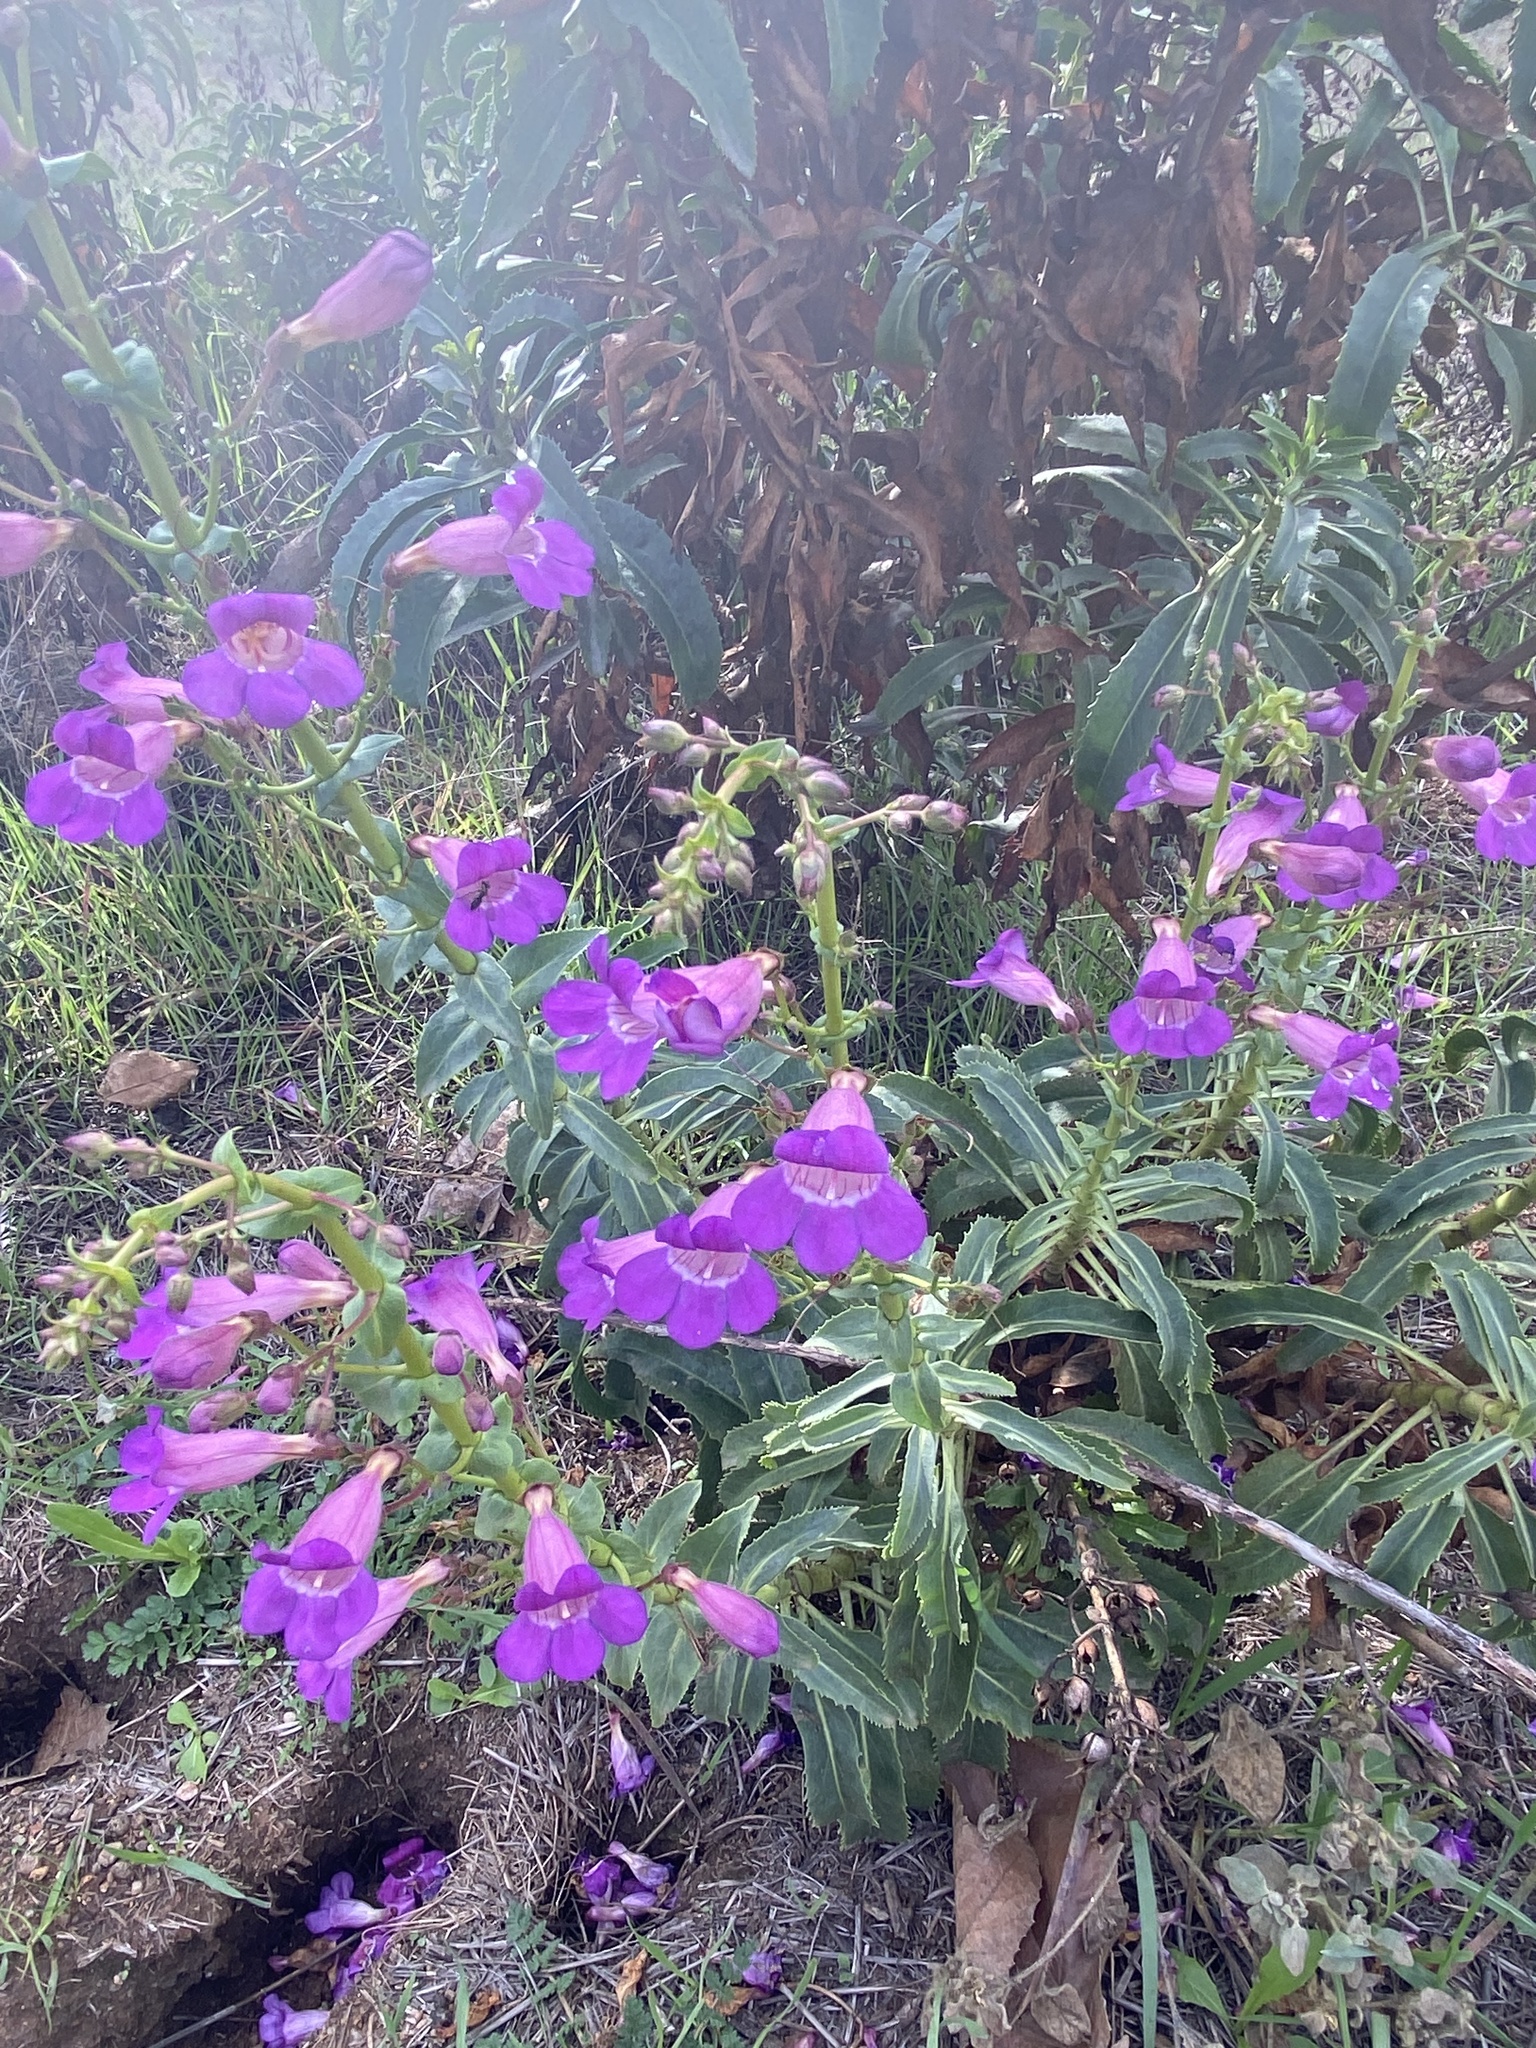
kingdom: Plantae
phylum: Tracheophyta
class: Magnoliopsida
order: Lamiales
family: Plantaginaceae
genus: Penstemon
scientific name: Penstemon spectabilis
